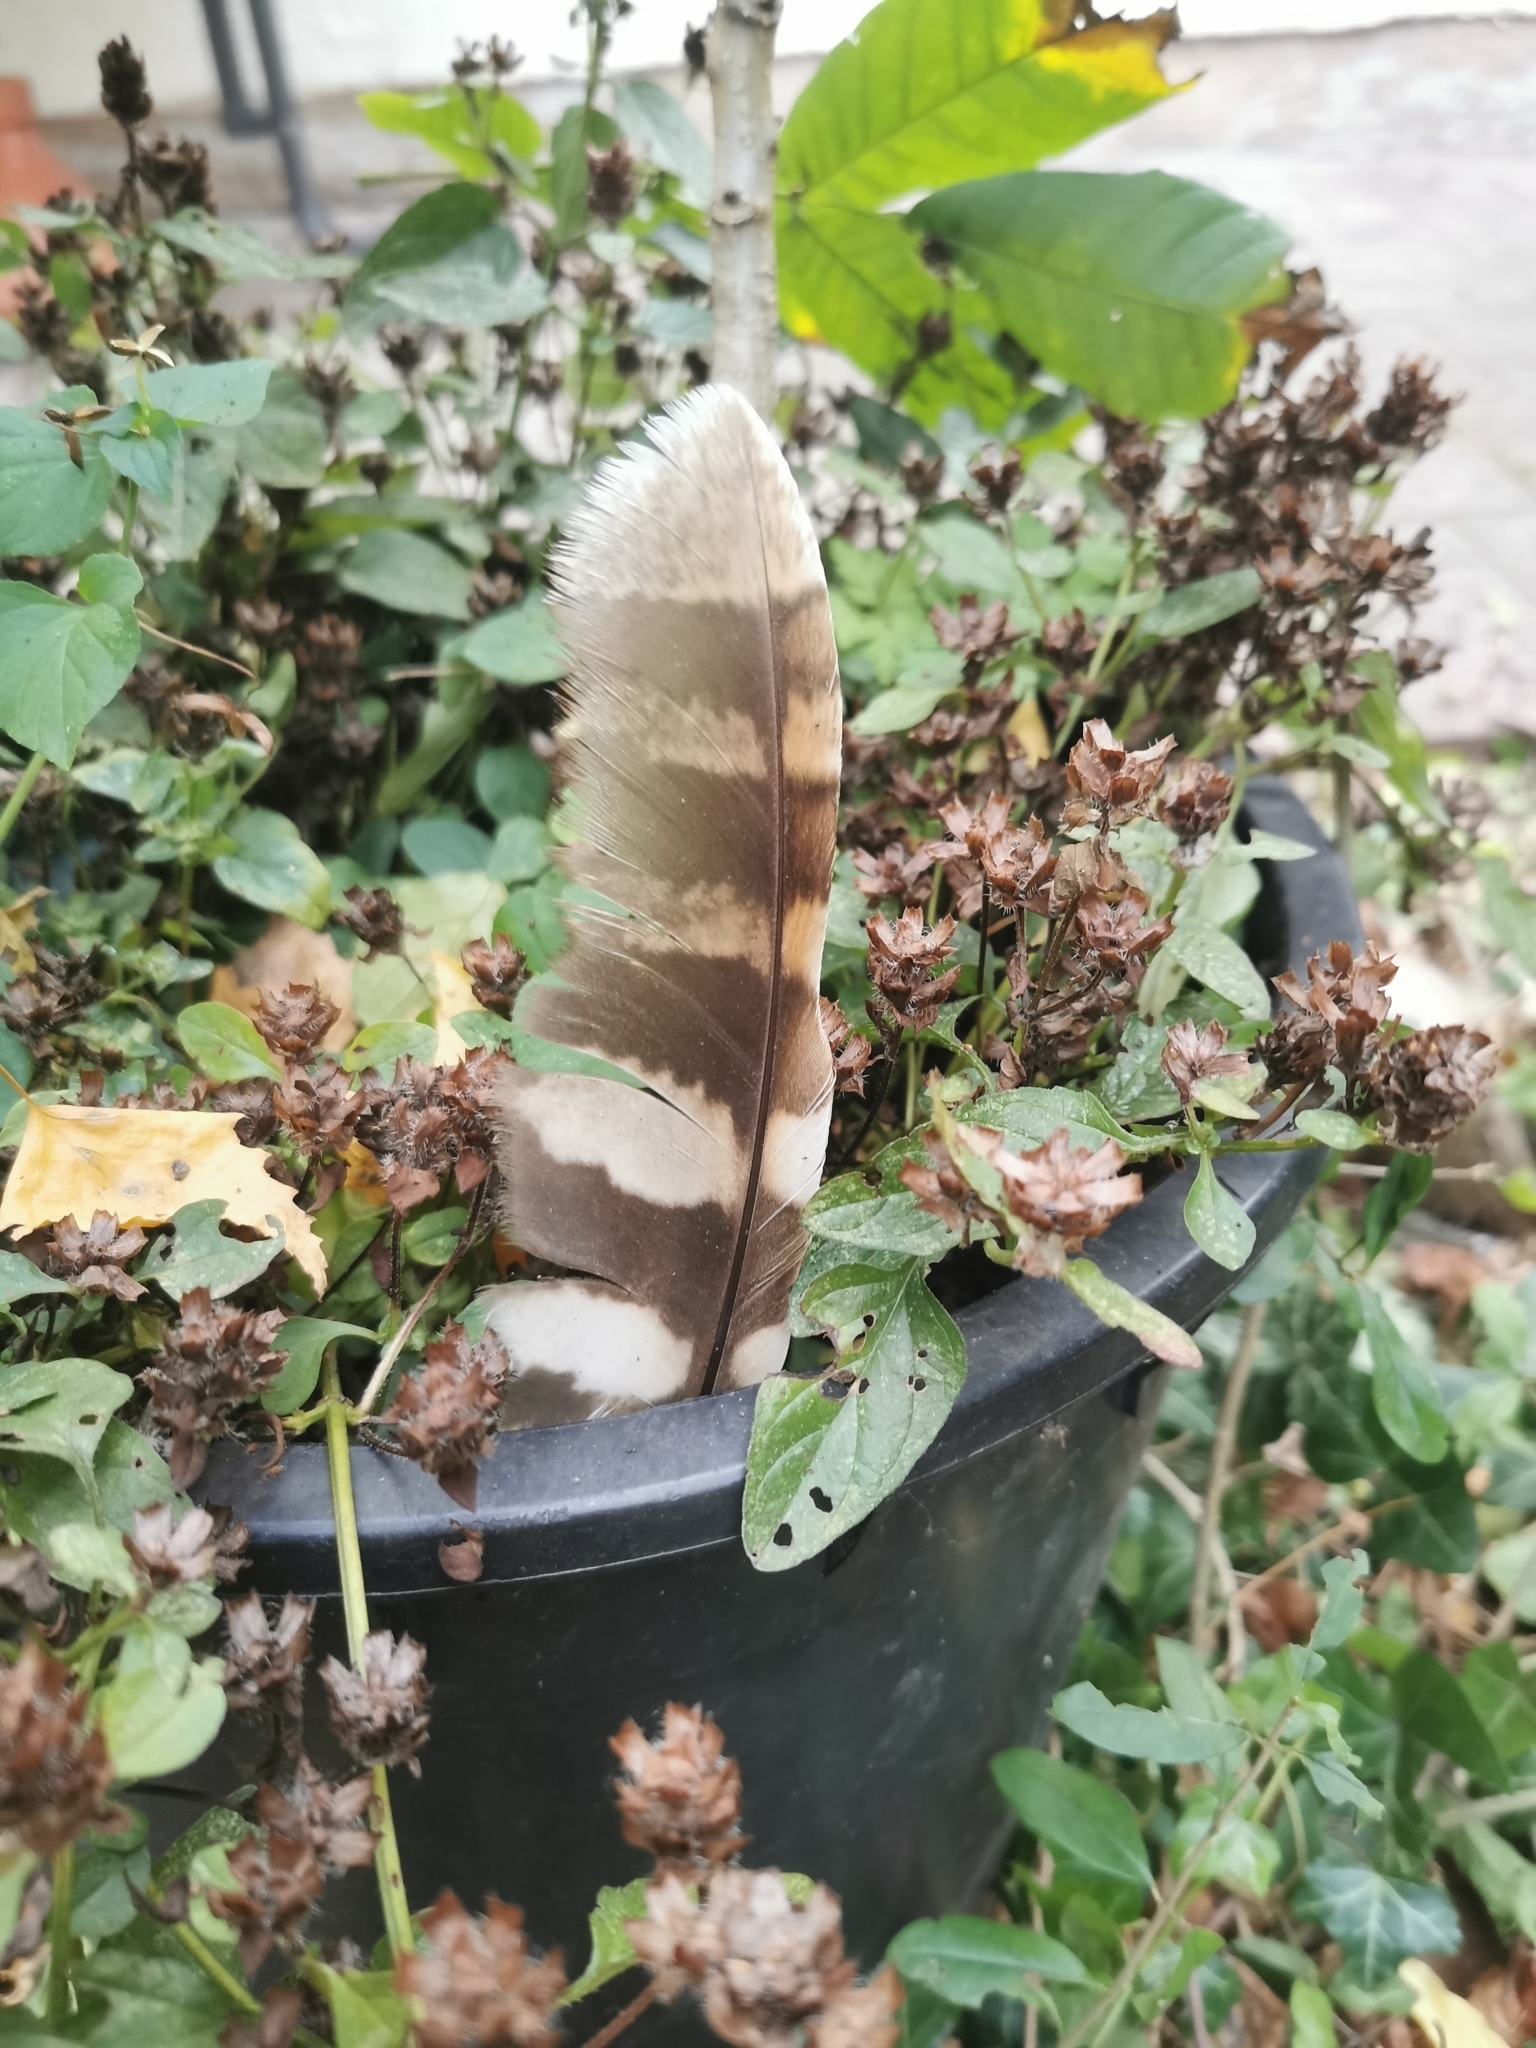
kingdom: Animalia
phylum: Chordata
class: Aves
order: Strigiformes
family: Strigidae
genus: Strix
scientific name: Strix aluco
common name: Tawny owl
